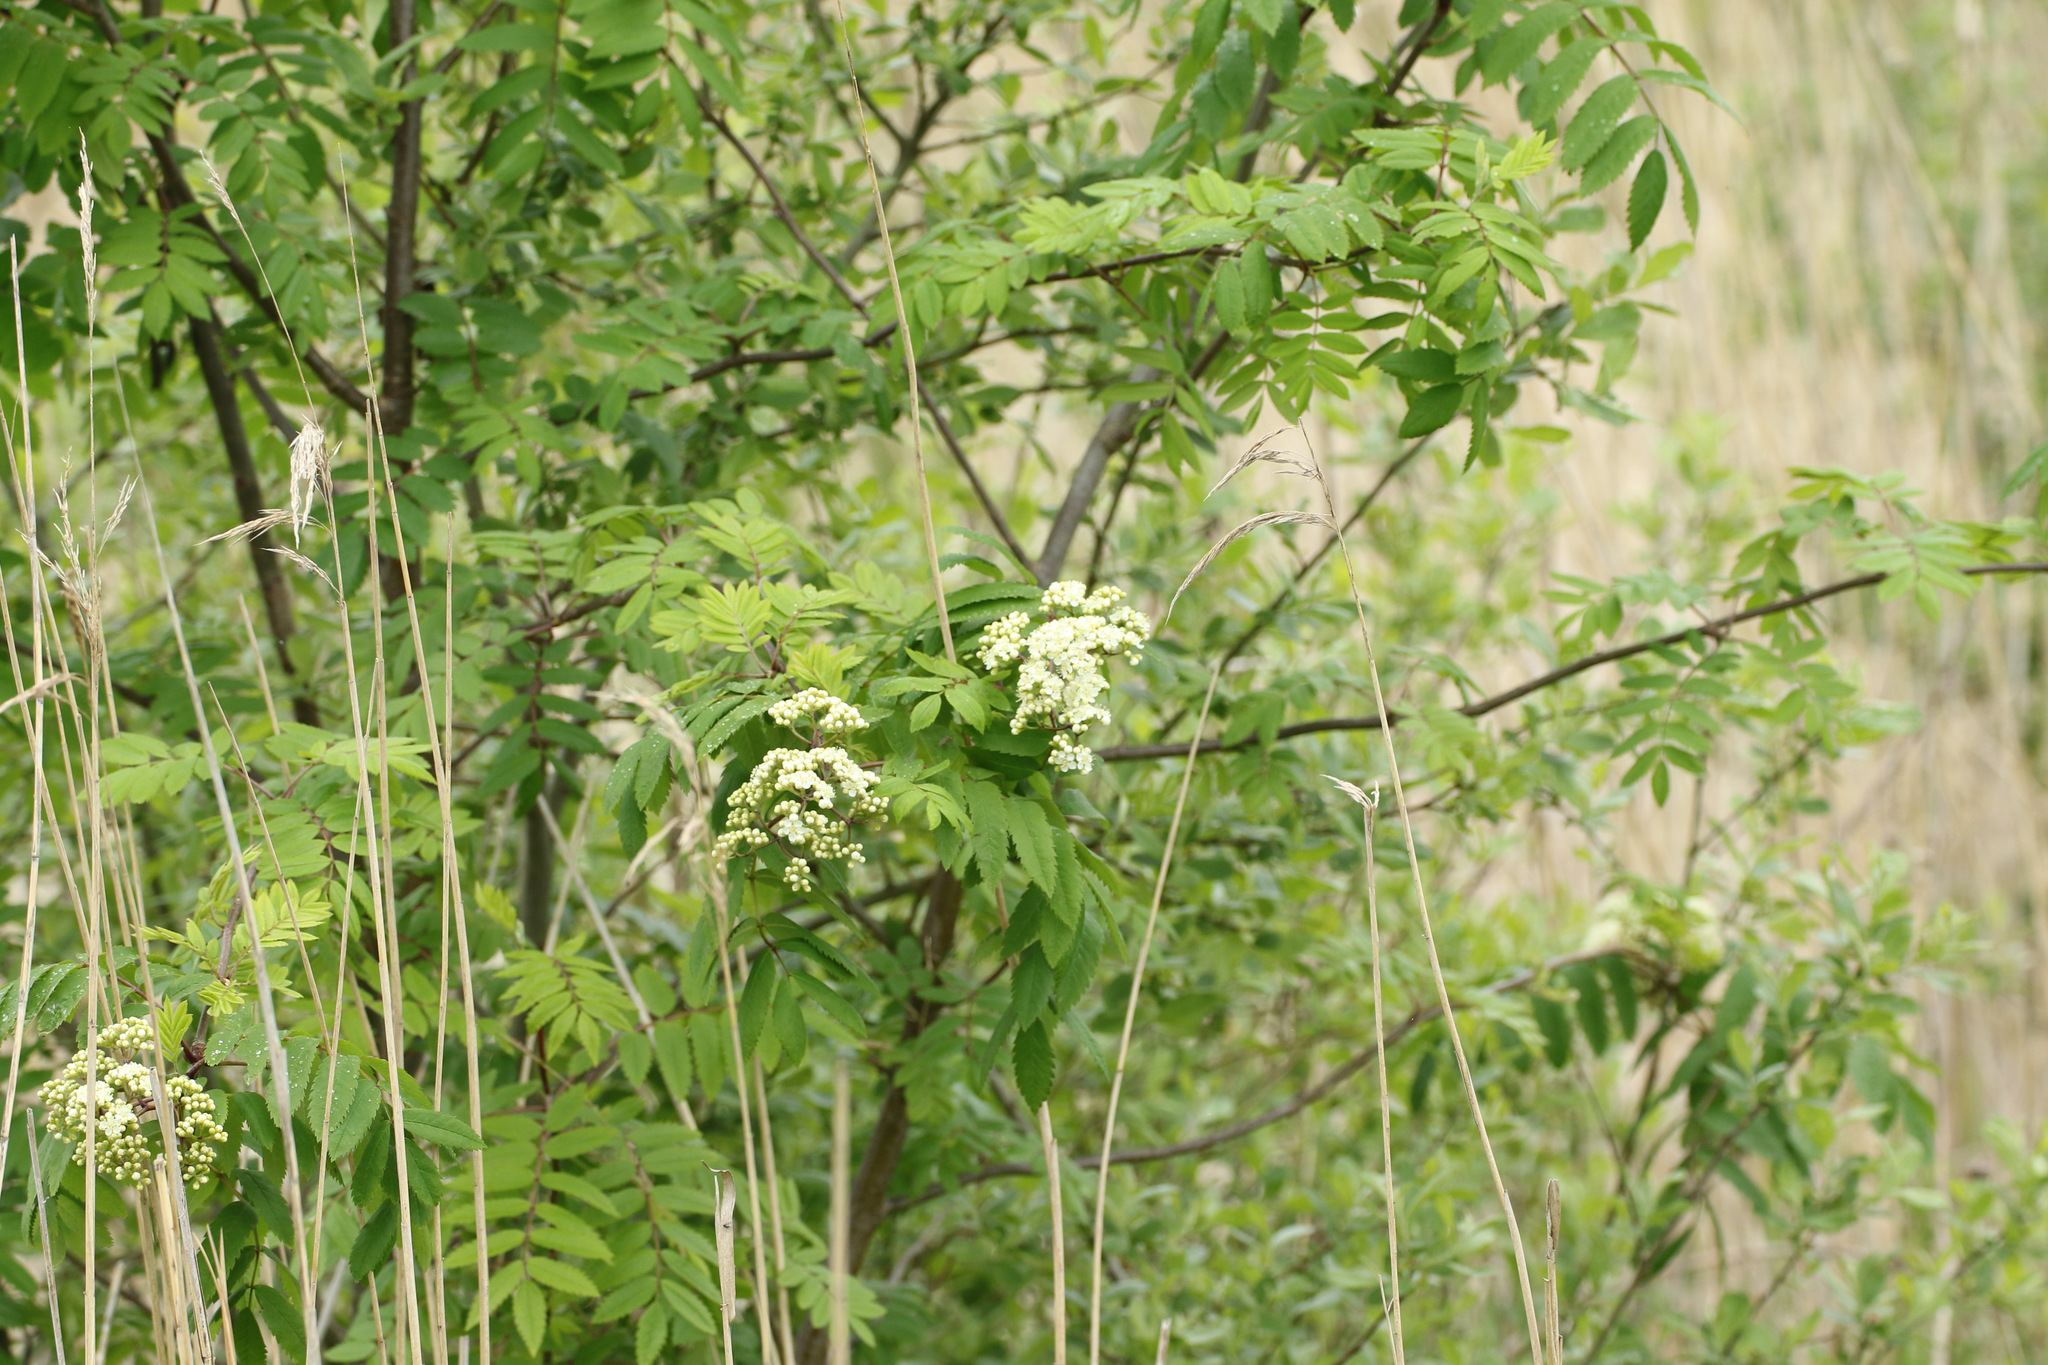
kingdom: Plantae
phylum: Tracheophyta
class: Magnoliopsida
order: Rosales
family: Rosaceae
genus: Sorbus
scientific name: Sorbus aucuparia
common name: Rowan
